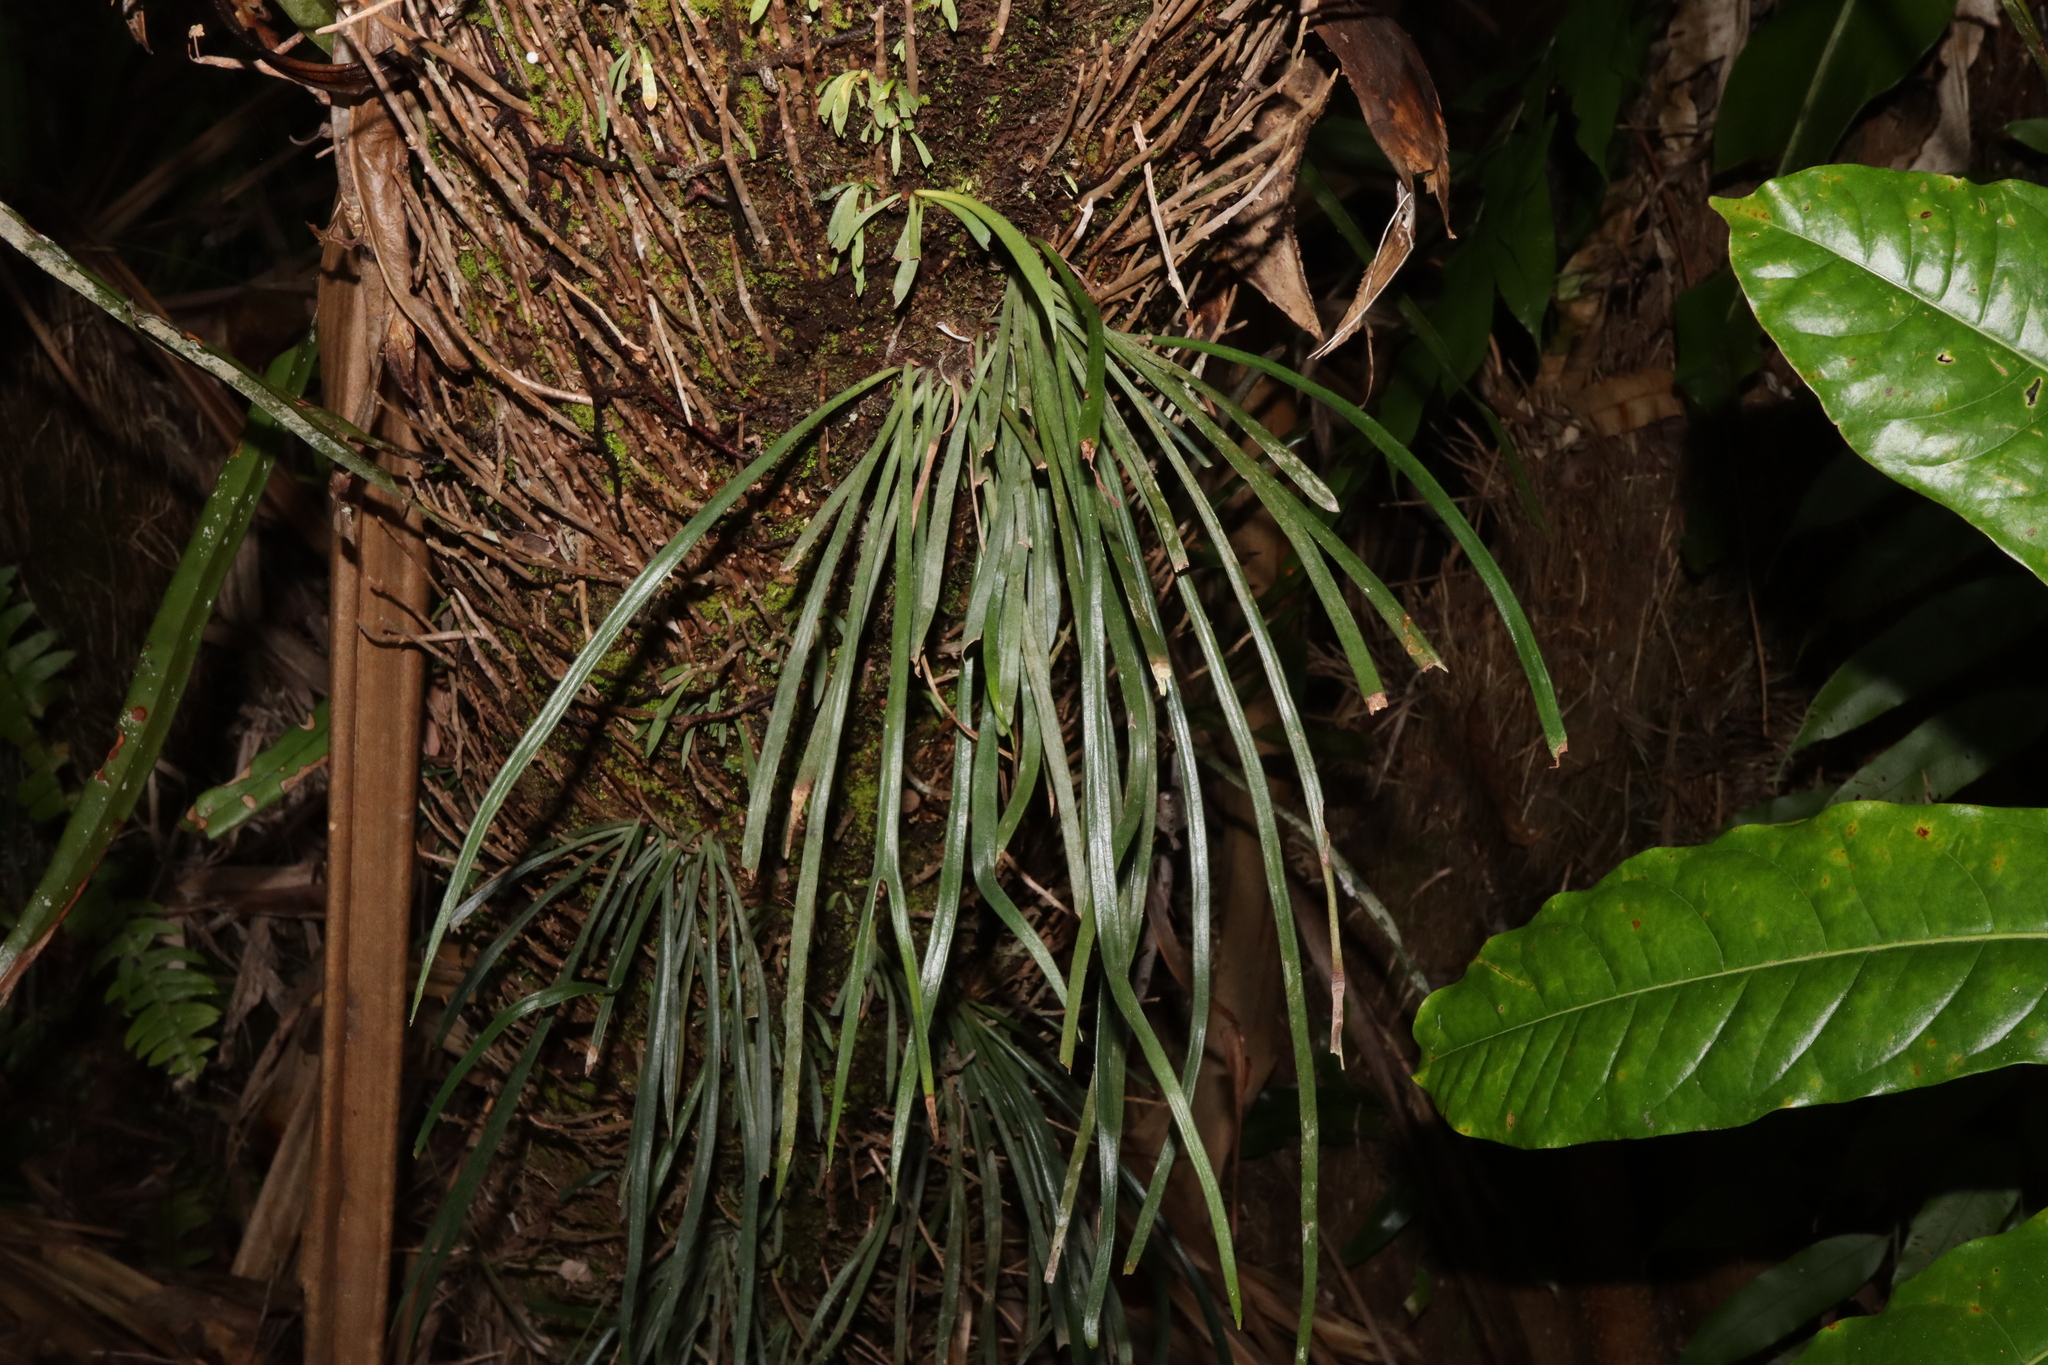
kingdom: Plantae
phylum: Tracheophyta
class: Polypodiopsida
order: Polypodiales
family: Pteridaceae
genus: Haplopteris
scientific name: Haplopteris elongata
